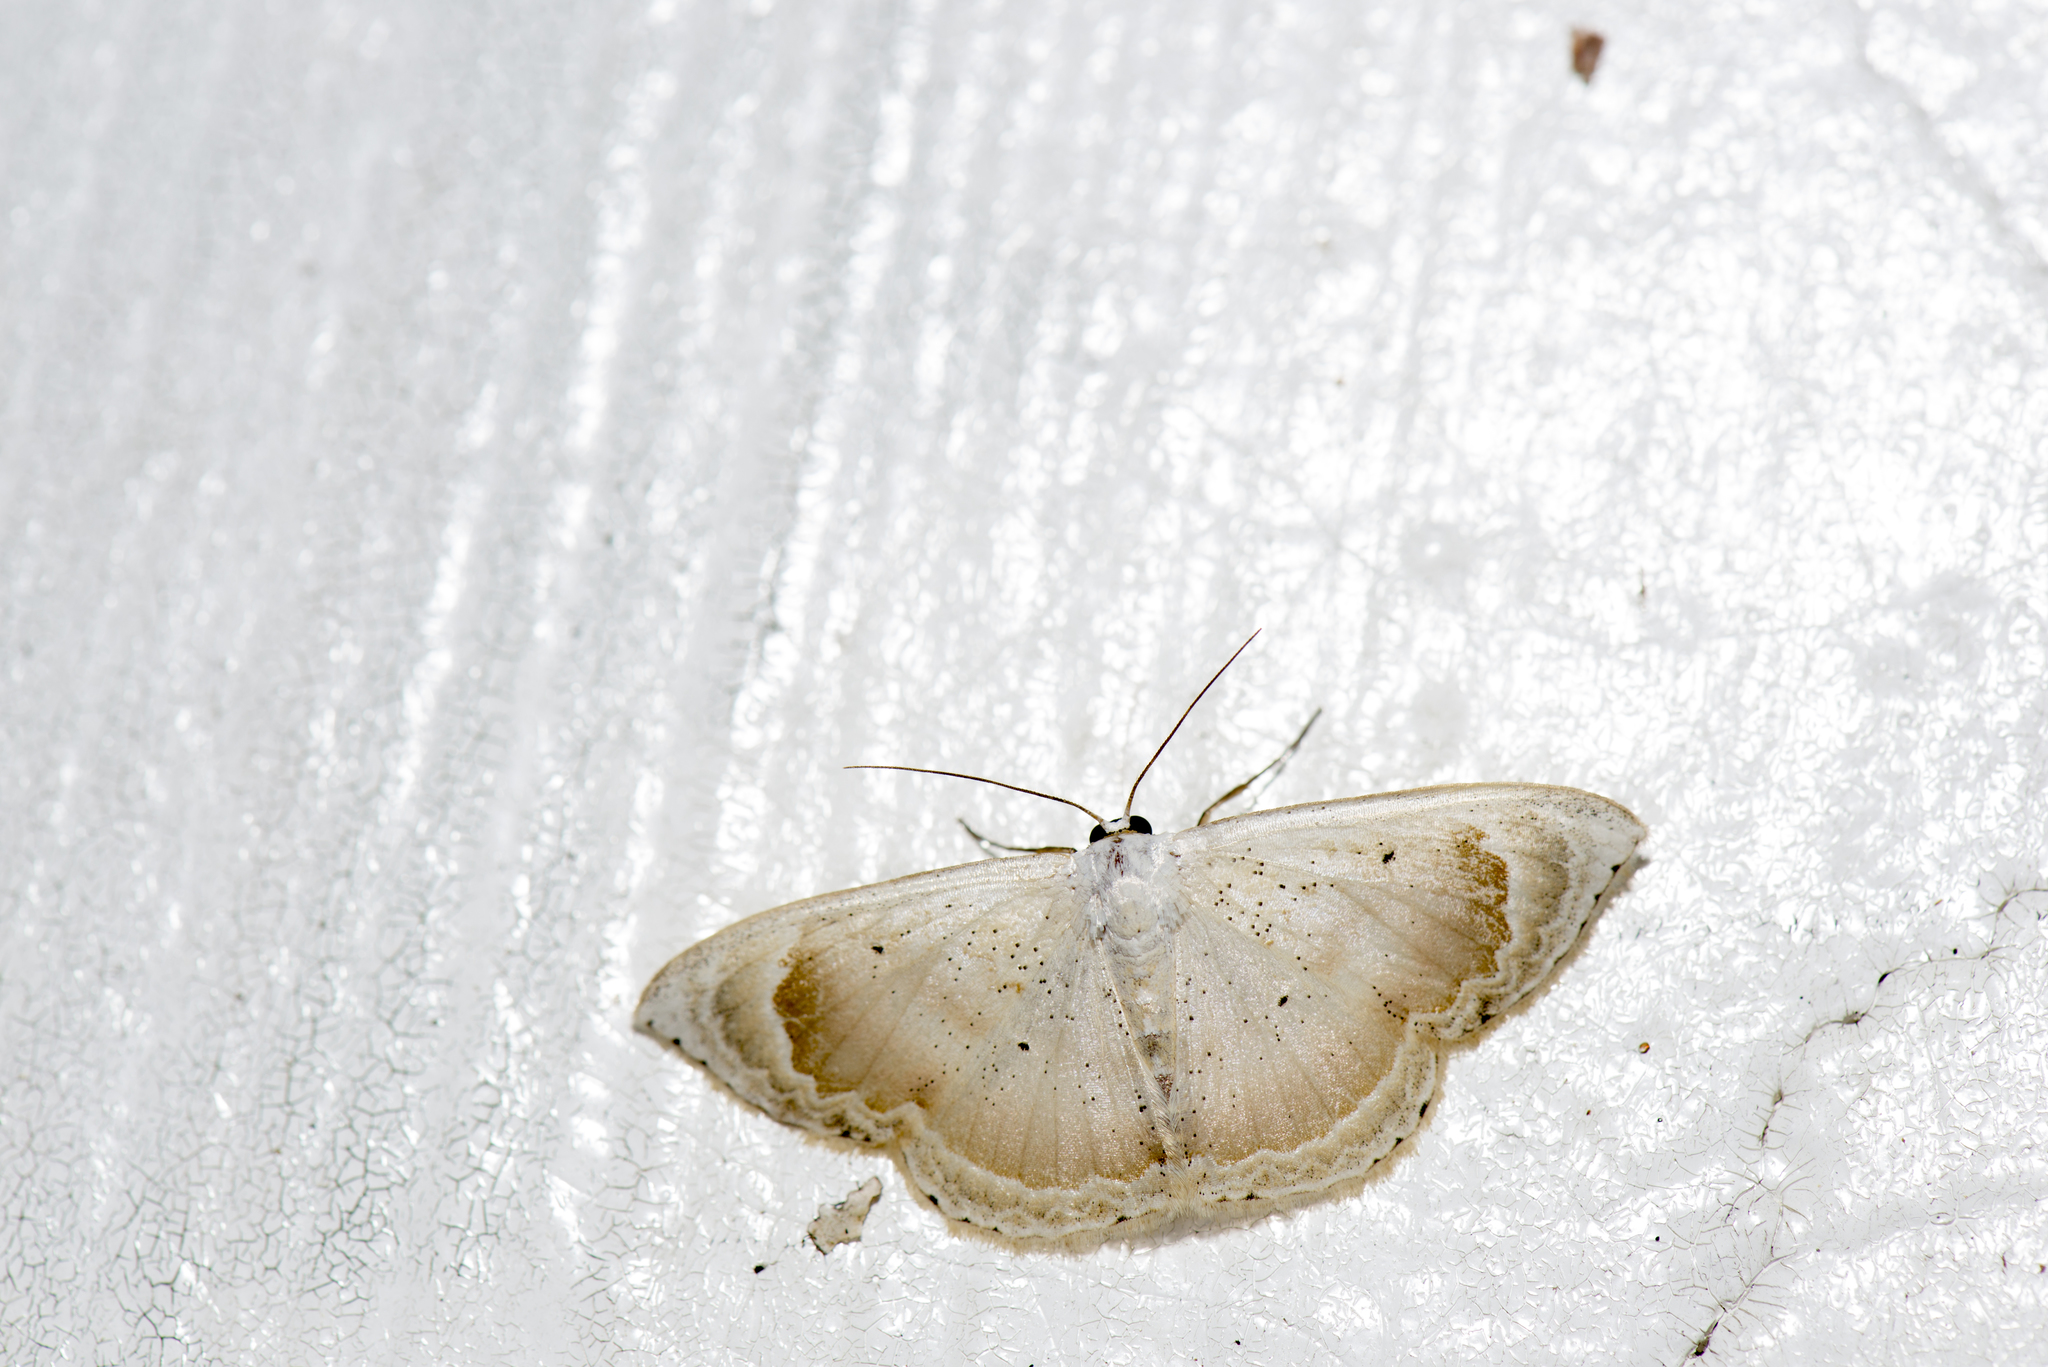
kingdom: Animalia
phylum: Arthropoda
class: Insecta
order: Lepidoptera
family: Geometridae
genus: Somatina
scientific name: Somatina rosacea
